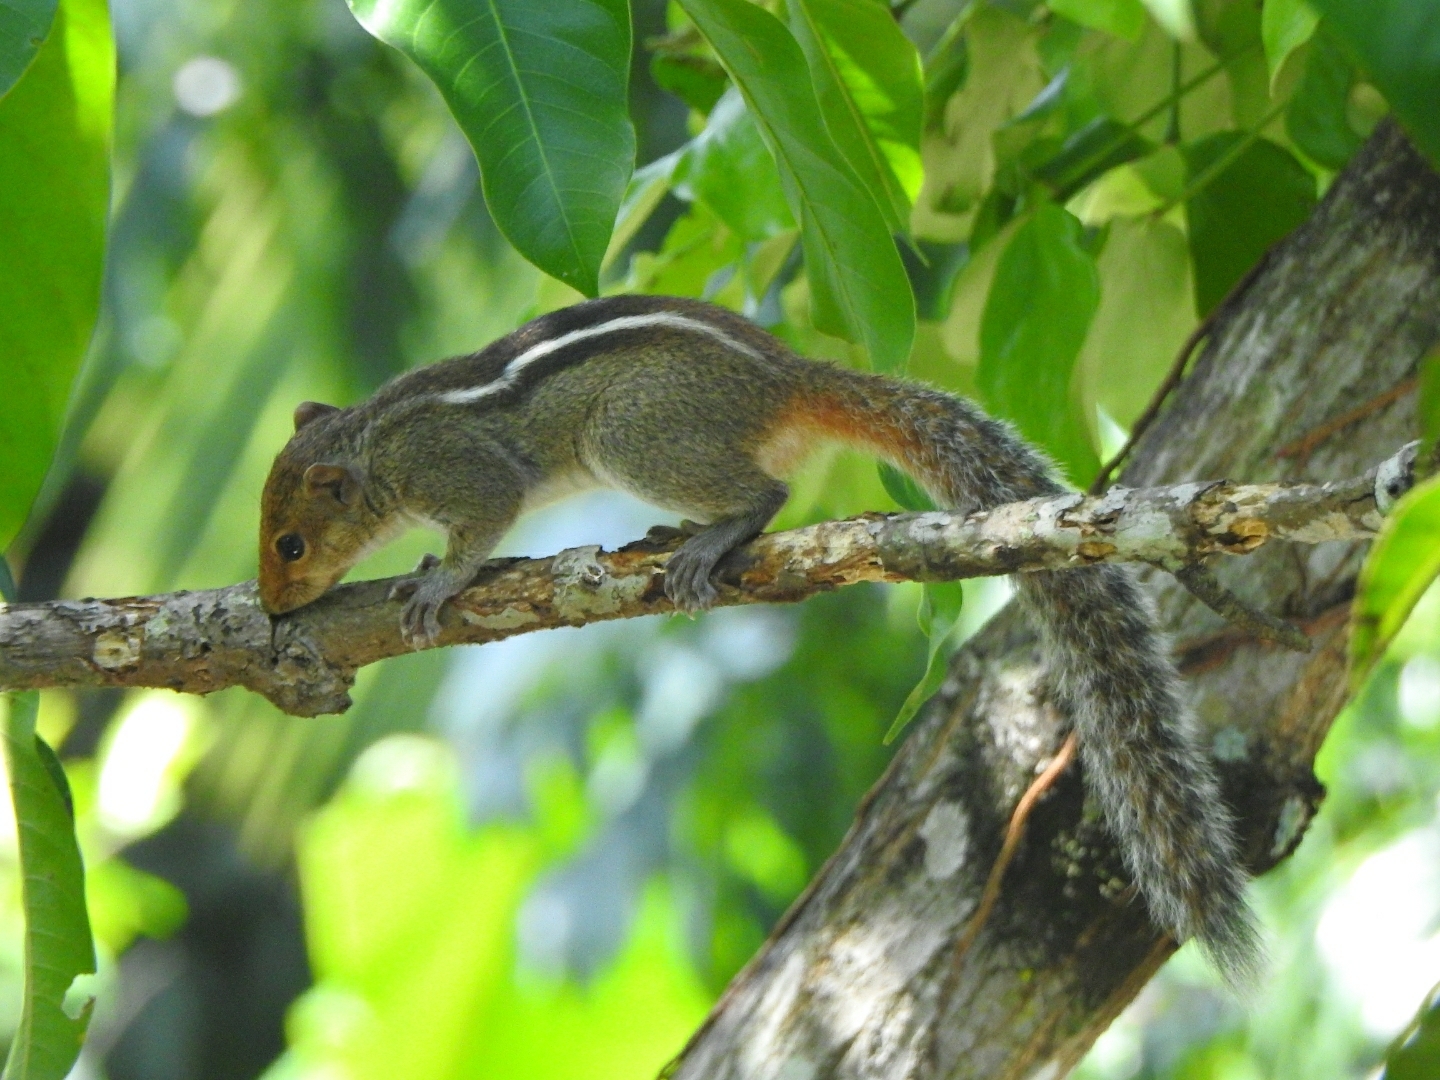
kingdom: Animalia
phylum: Chordata
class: Mammalia
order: Rodentia
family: Sciuridae
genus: Funambulus
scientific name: Funambulus tristriatus
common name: Jungle palm squirrel
